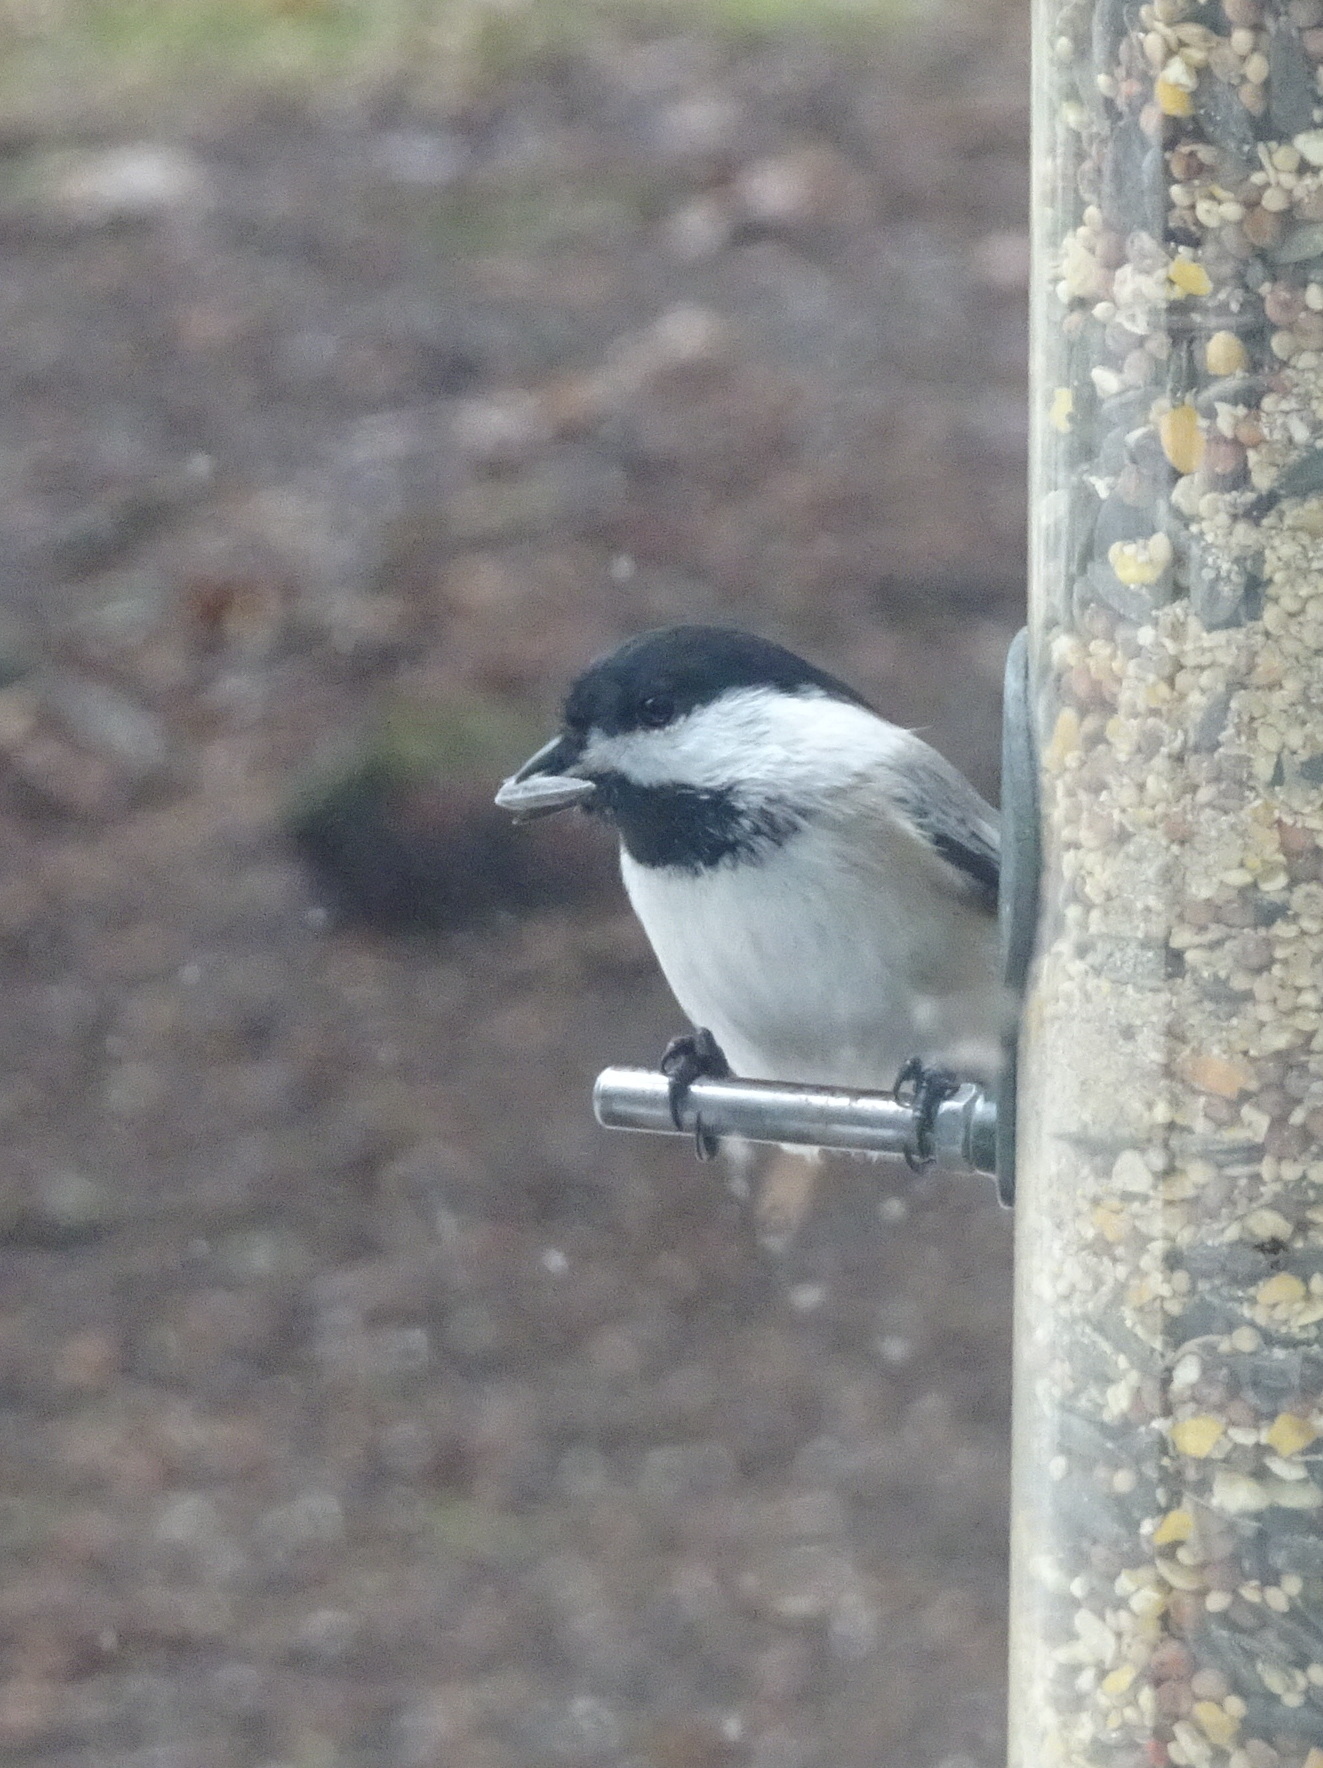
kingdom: Animalia
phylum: Chordata
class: Aves
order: Passeriformes
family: Paridae
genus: Poecile
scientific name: Poecile atricapillus
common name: Black-capped chickadee
